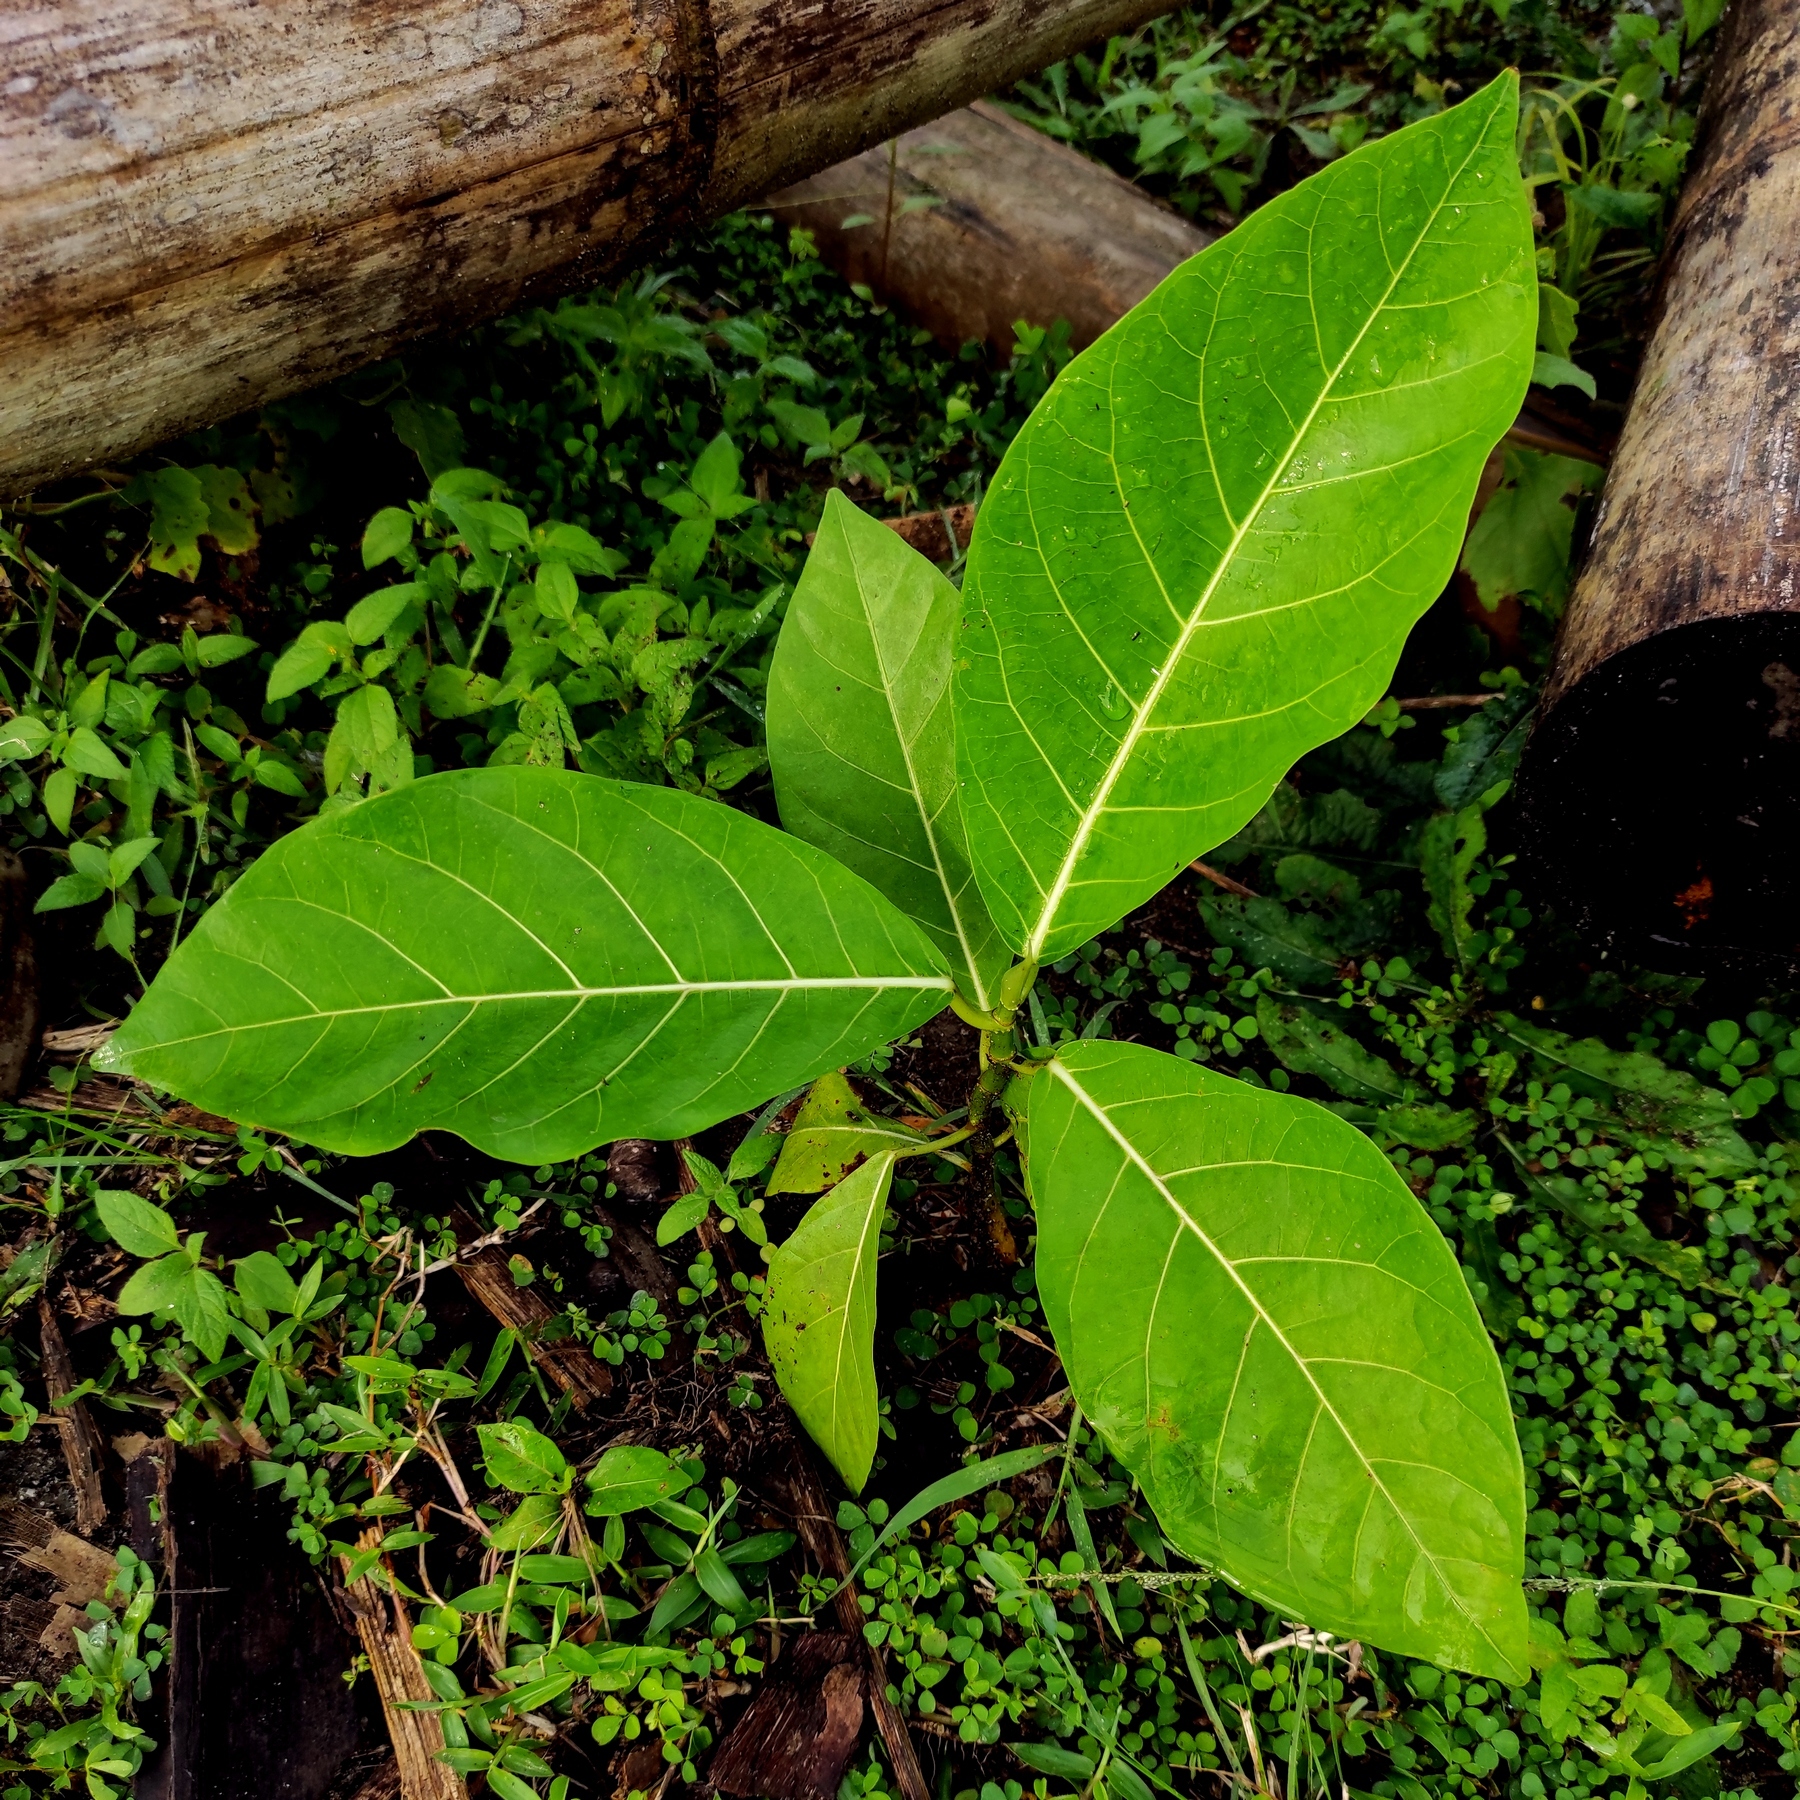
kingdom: Plantae
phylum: Tracheophyta
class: Magnoliopsida
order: Rosales
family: Moraceae
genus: Ficus
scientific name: Ficus septica
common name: Septic fig
